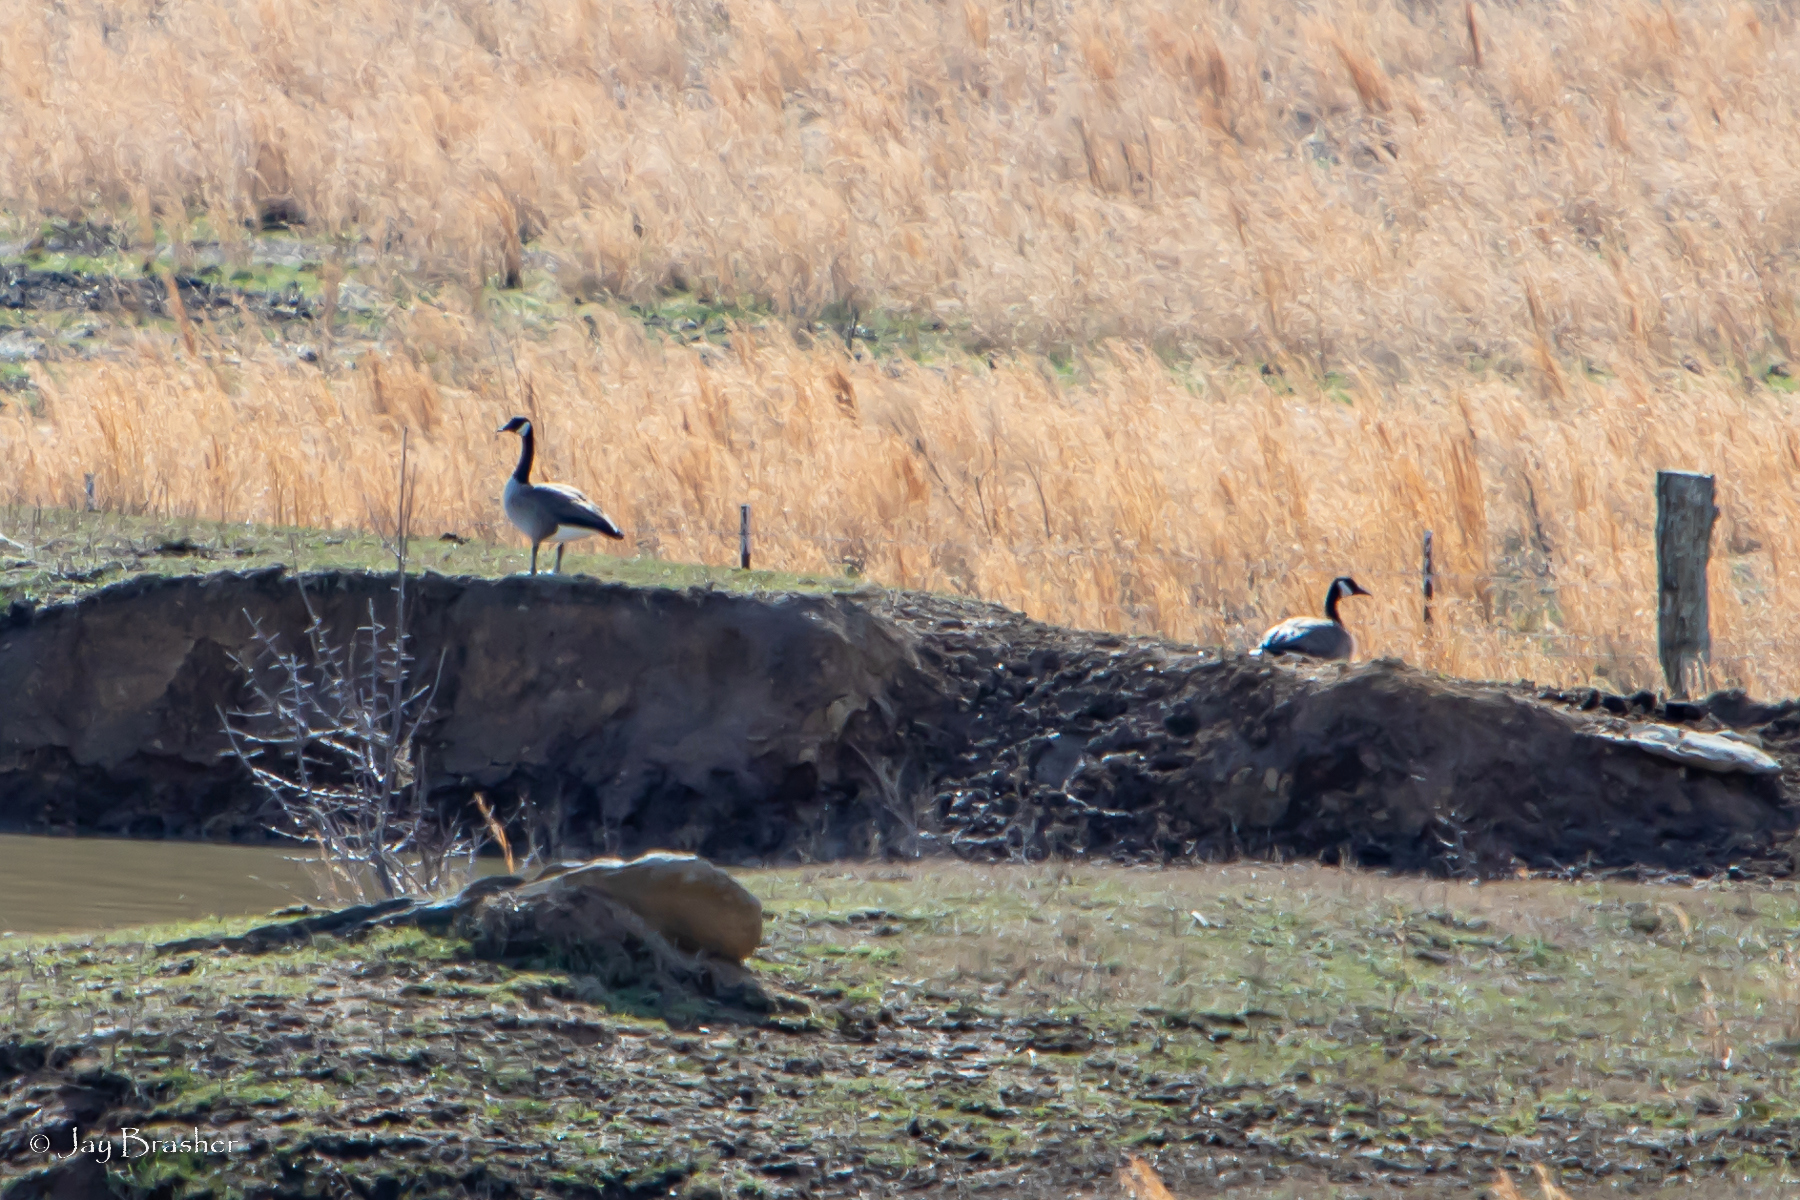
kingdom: Animalia
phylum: Chordata
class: Aves
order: Anseriformes
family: Anatidae
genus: Branta
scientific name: Branta canadensis
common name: Canada goose
